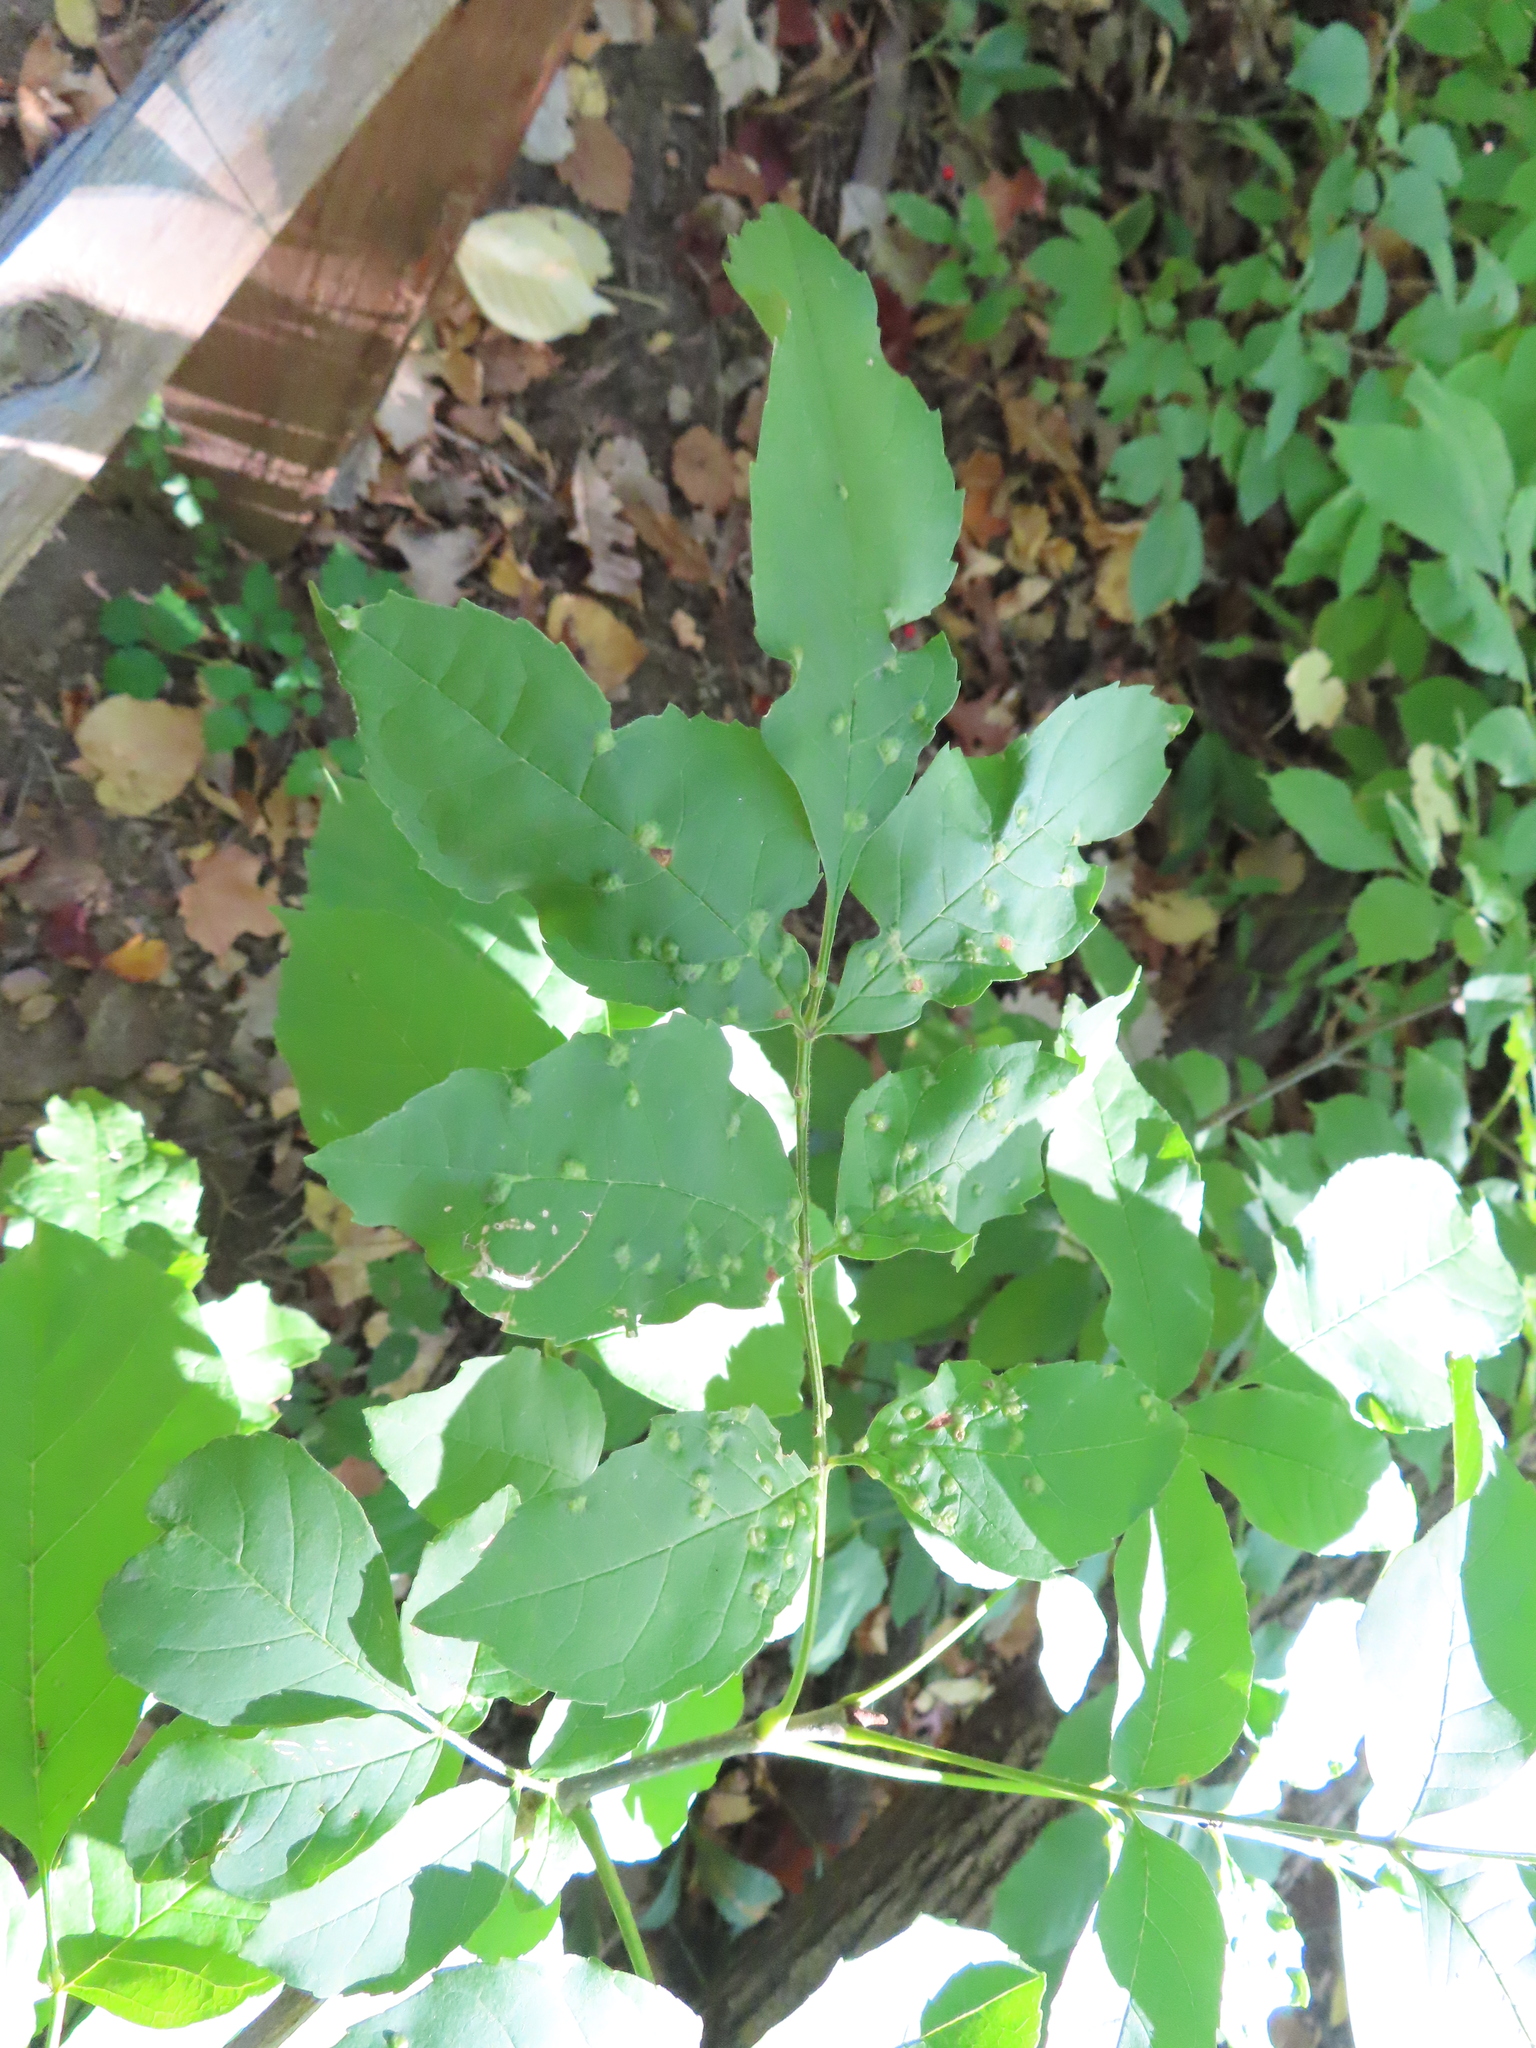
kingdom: Animalia
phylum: Arthropoda
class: Arachnida
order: Trombidiformes
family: Eriophyidae
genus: Aceria
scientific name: Aceria fraxinicola
